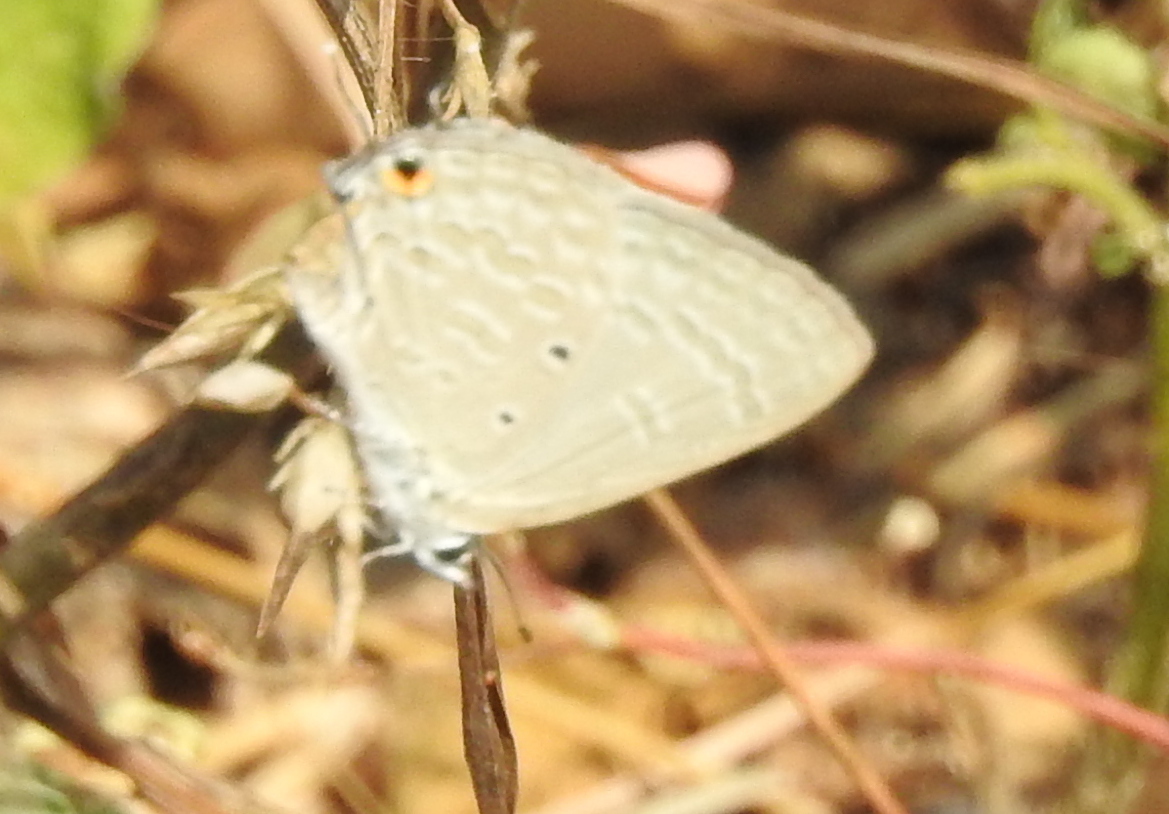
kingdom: Animalia
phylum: Arthropoda
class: Insecta
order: Lepidoptera
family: Lycaenidae
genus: Catochrysops
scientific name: Catochrysops strabo
